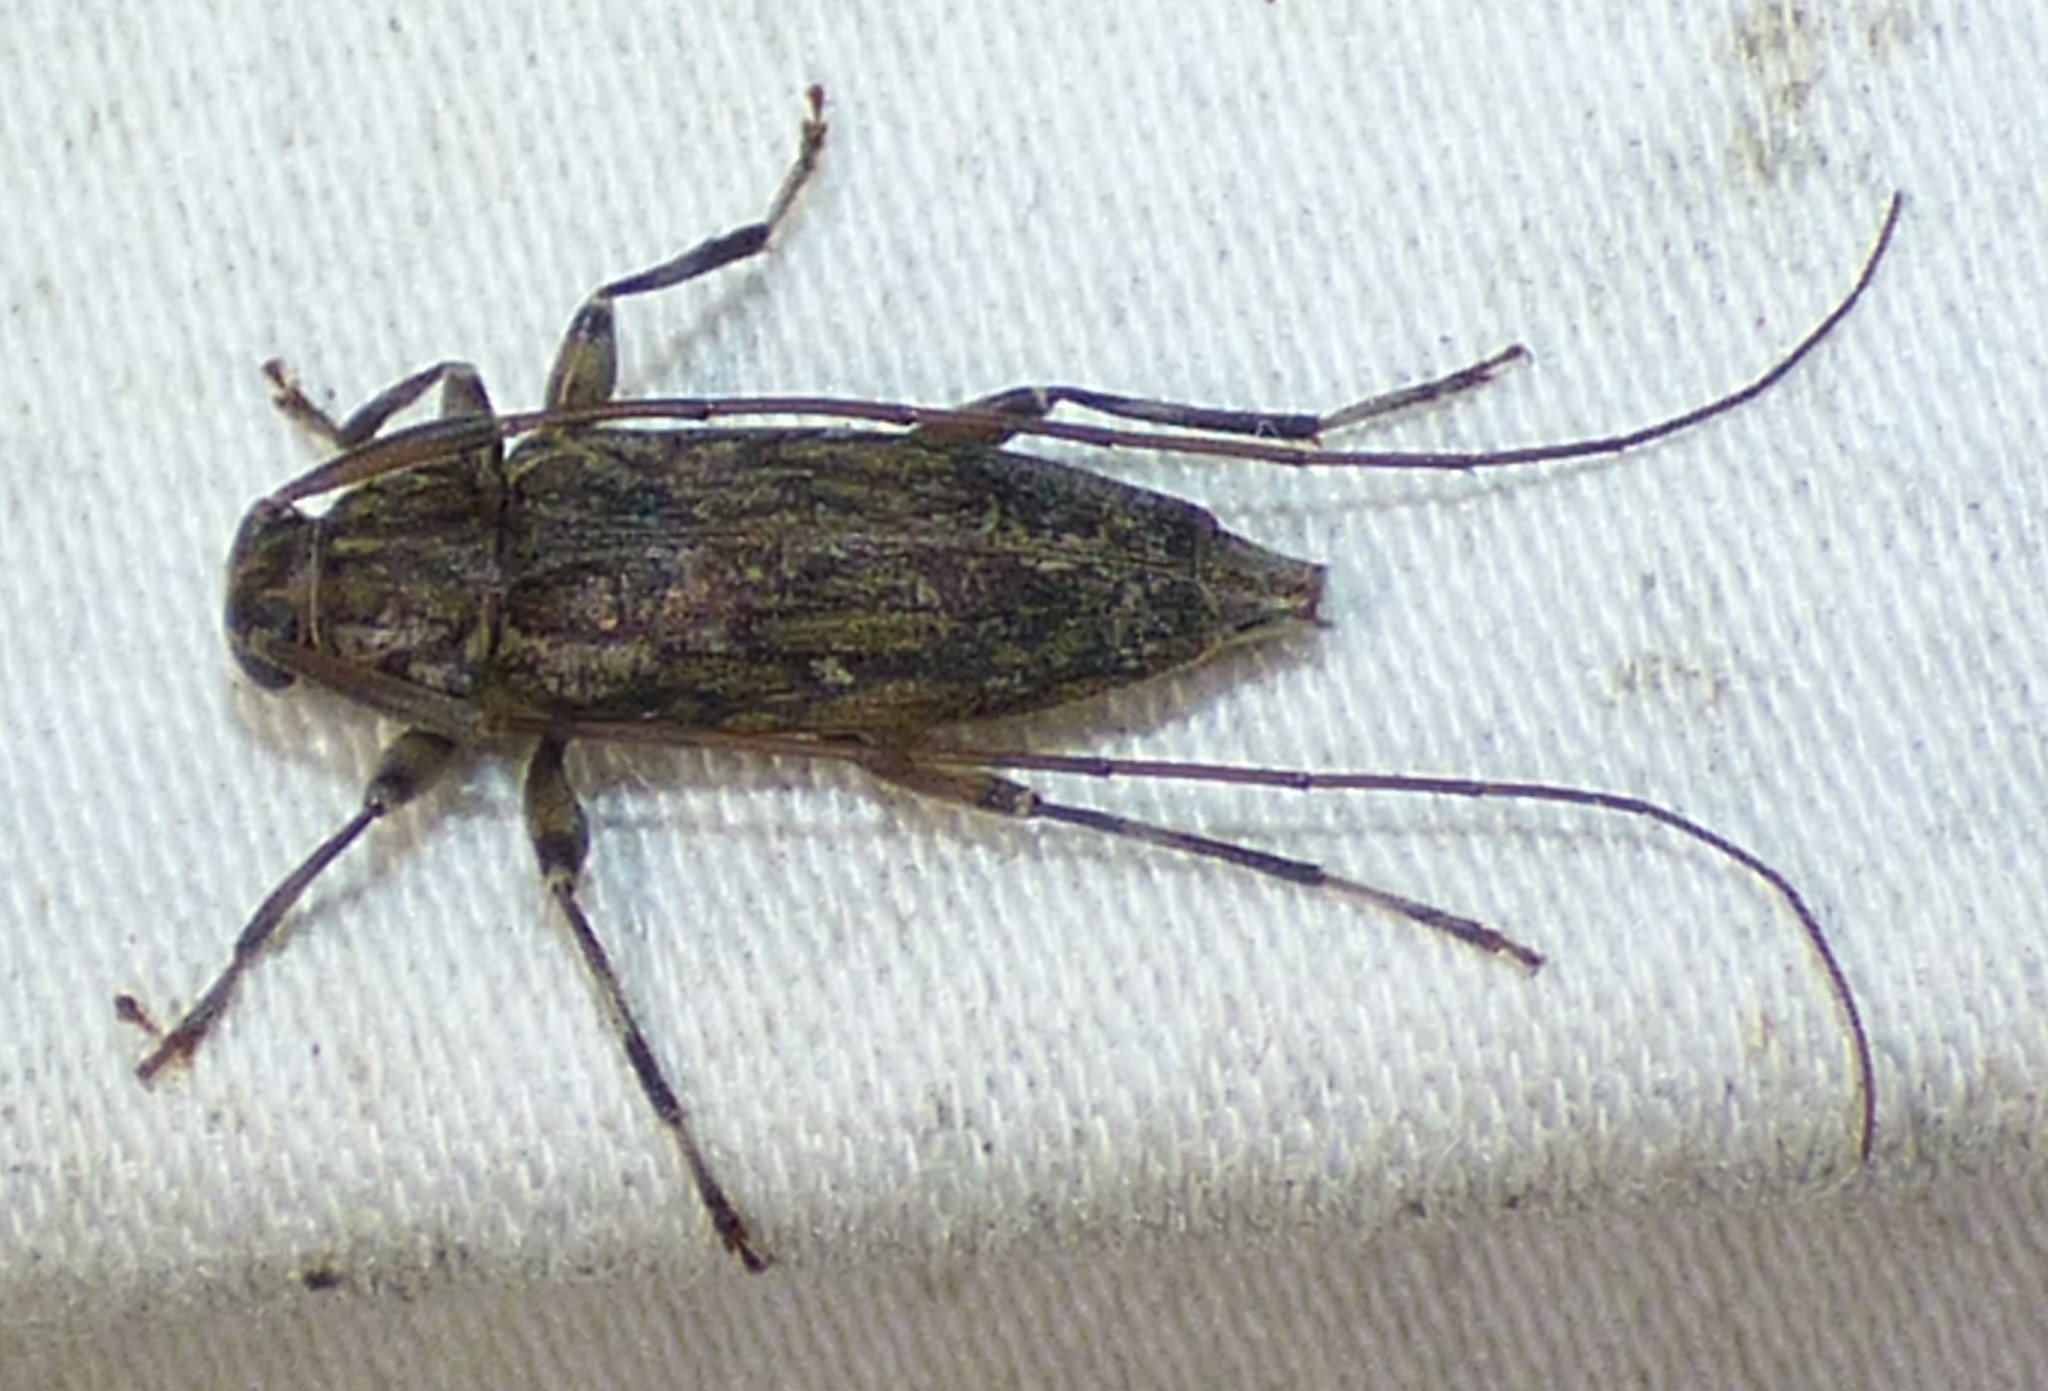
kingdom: Animalia
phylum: Arthropoda
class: Insecta
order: Coleoptera
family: Cerambycidae
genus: Lepturges
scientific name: Lepturges confluens
